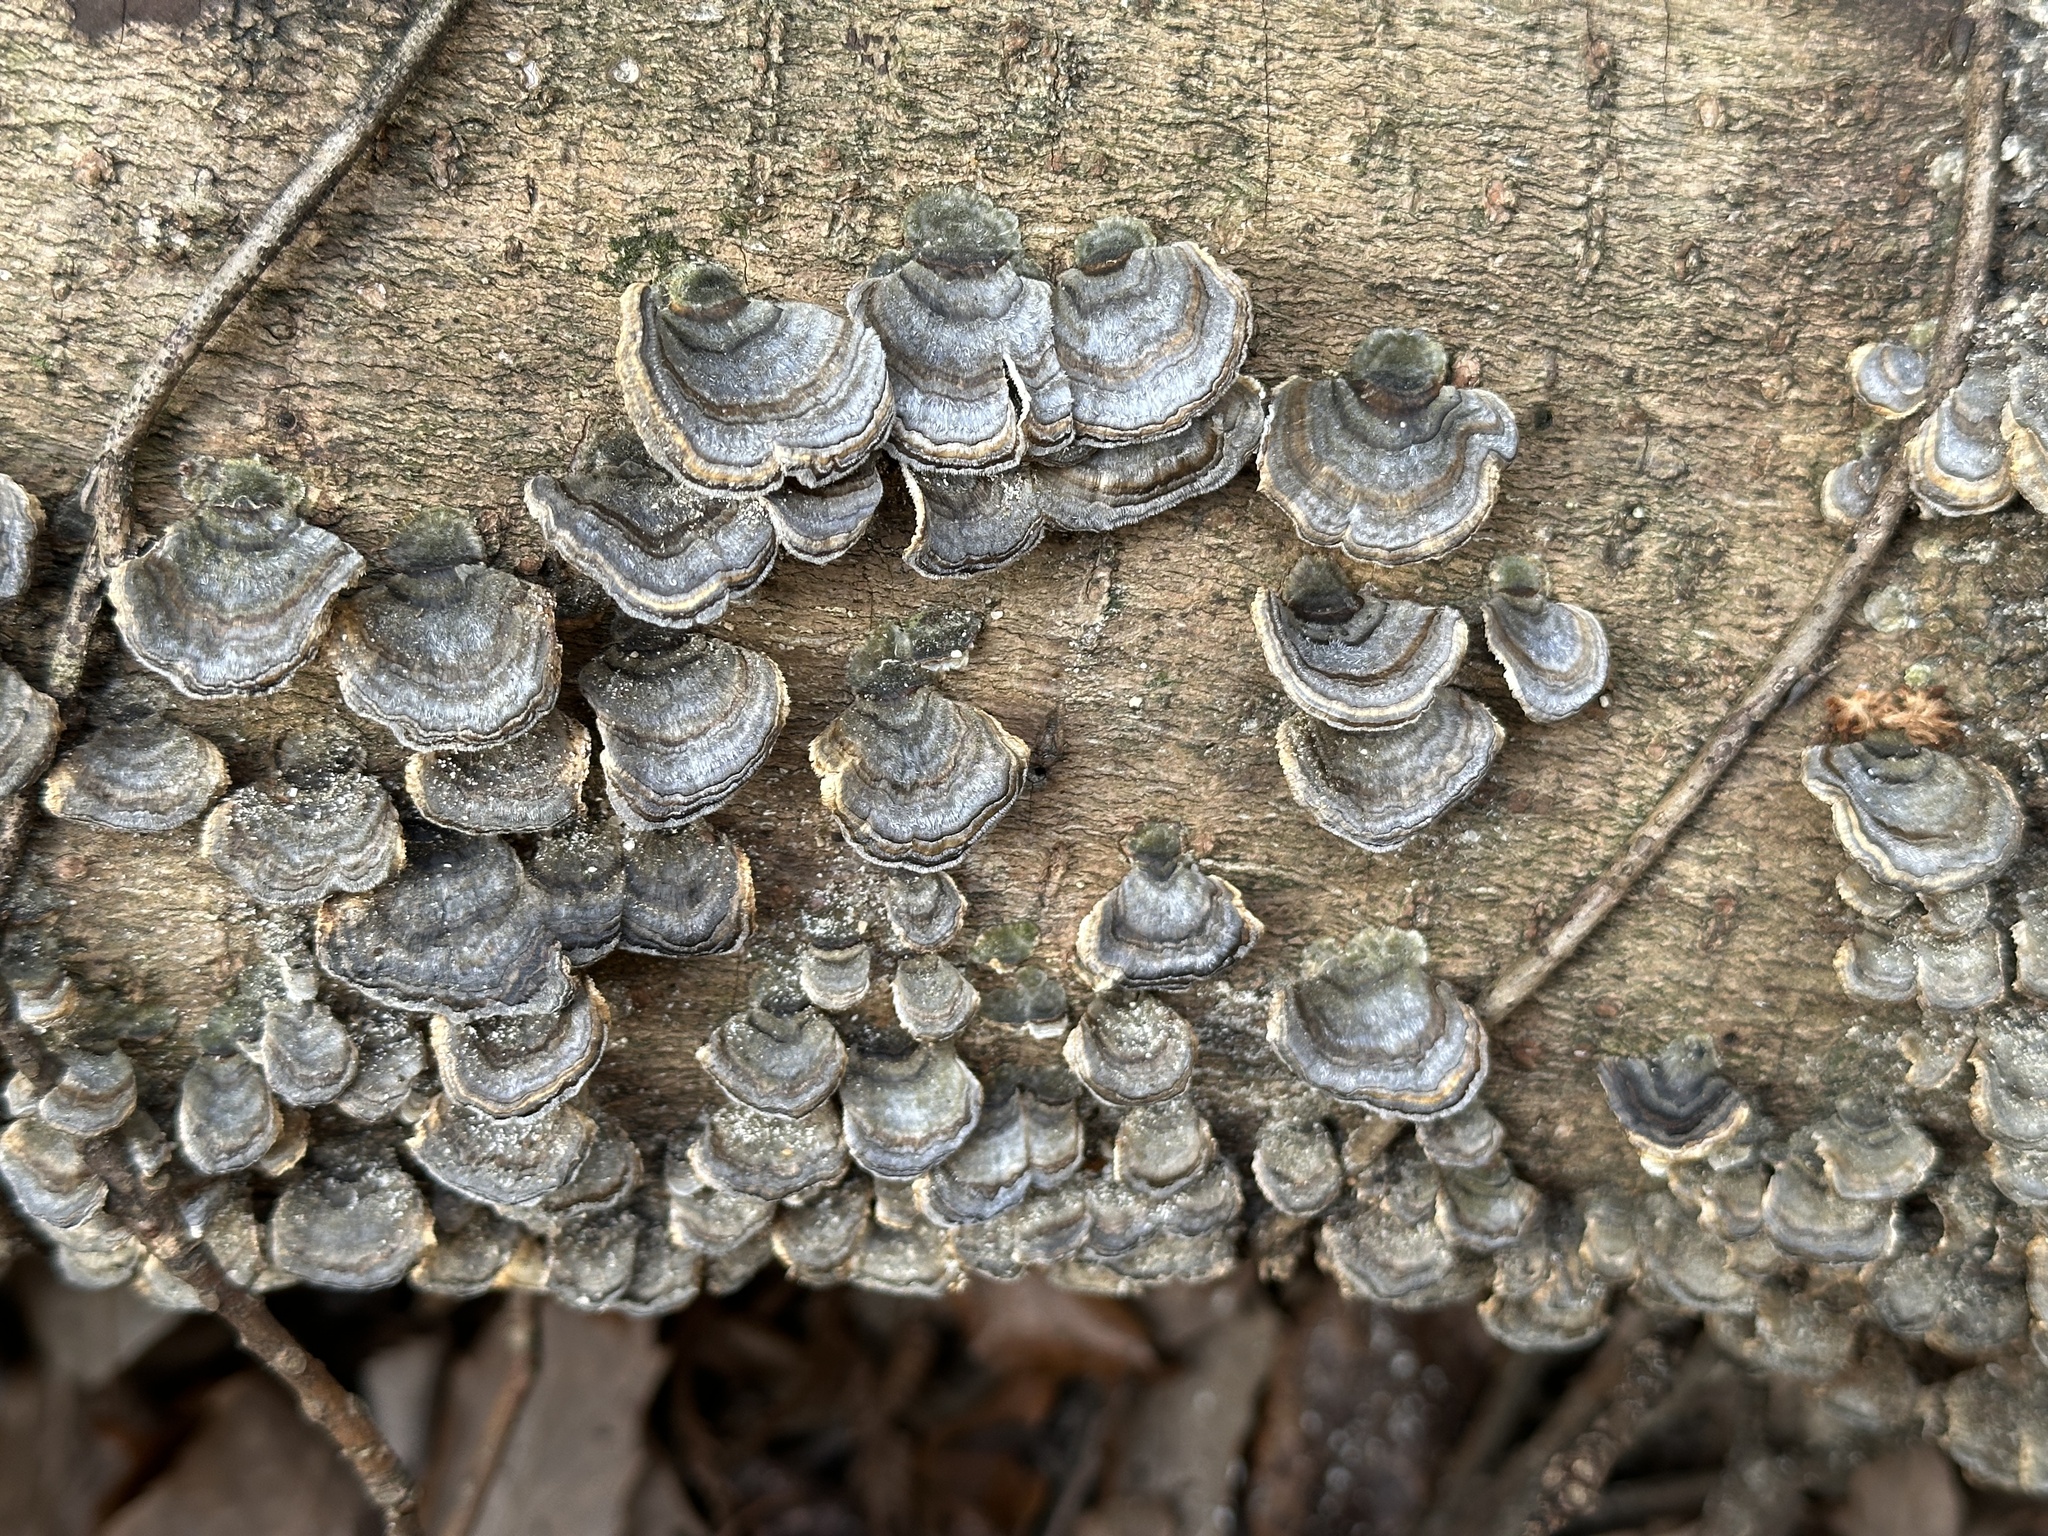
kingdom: Fungi
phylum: Basidiomycota
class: Agaricomycetes
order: Polyporales
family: Polyporaceae
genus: Trametes
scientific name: Trametes versicolor
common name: Turkeytail
